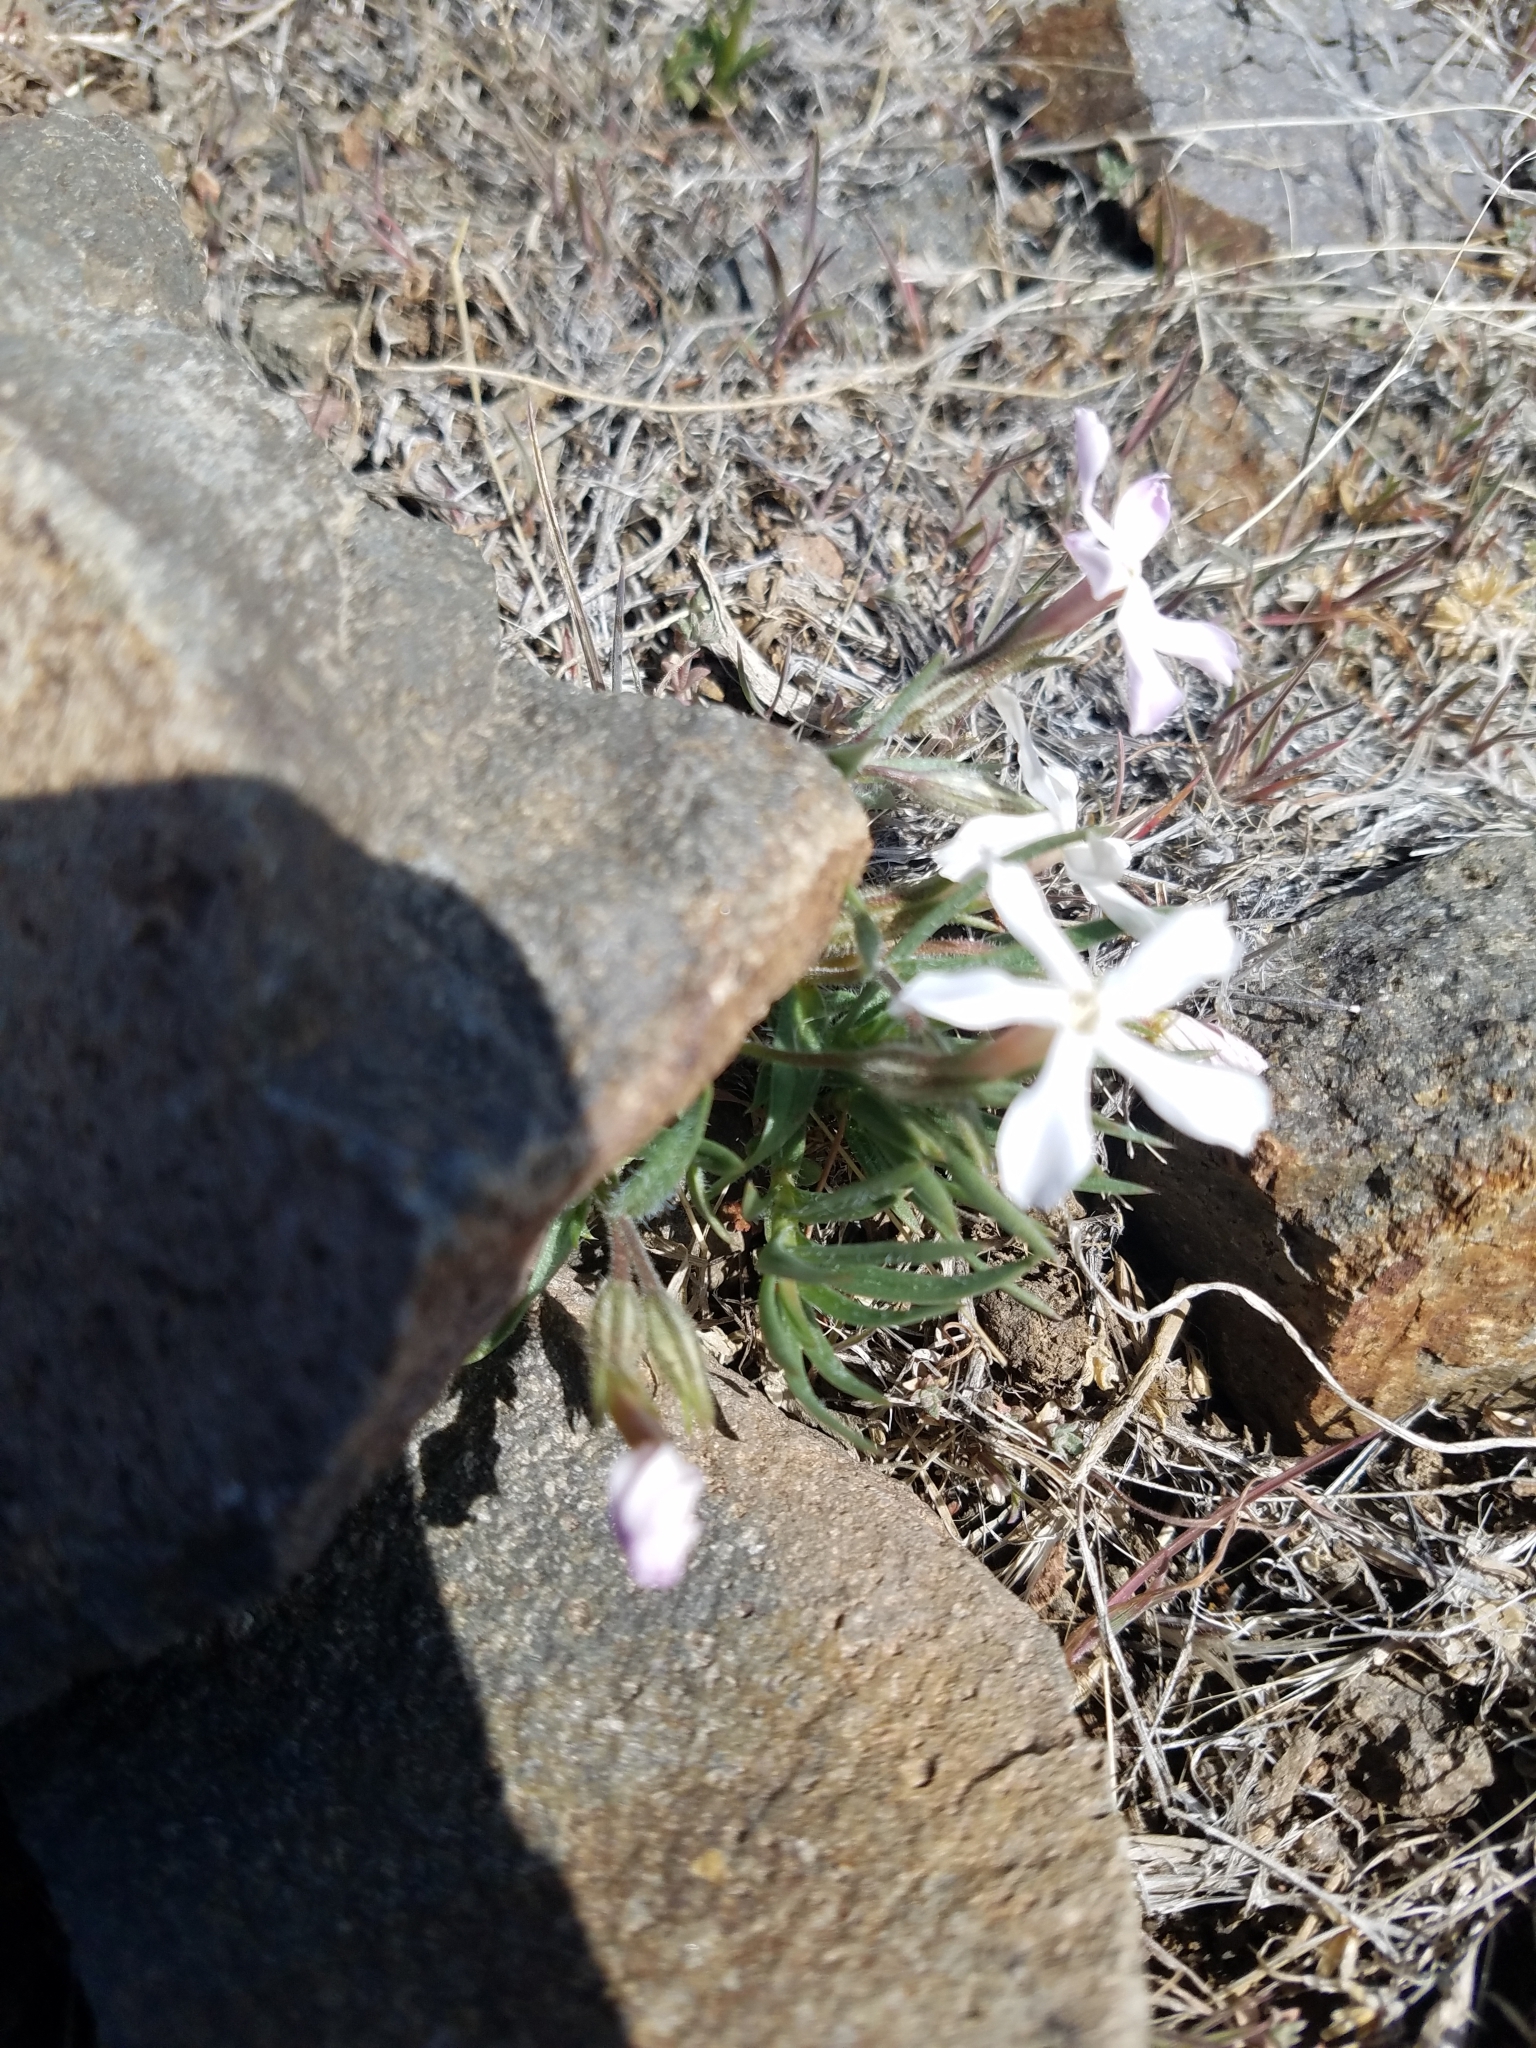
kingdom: Plantae
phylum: Tracheophyta
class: Magnoliopsida
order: Ericales
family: Polemoniaceae
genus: Phlox
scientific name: Phlox longifolia
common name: Longleaf phlox
